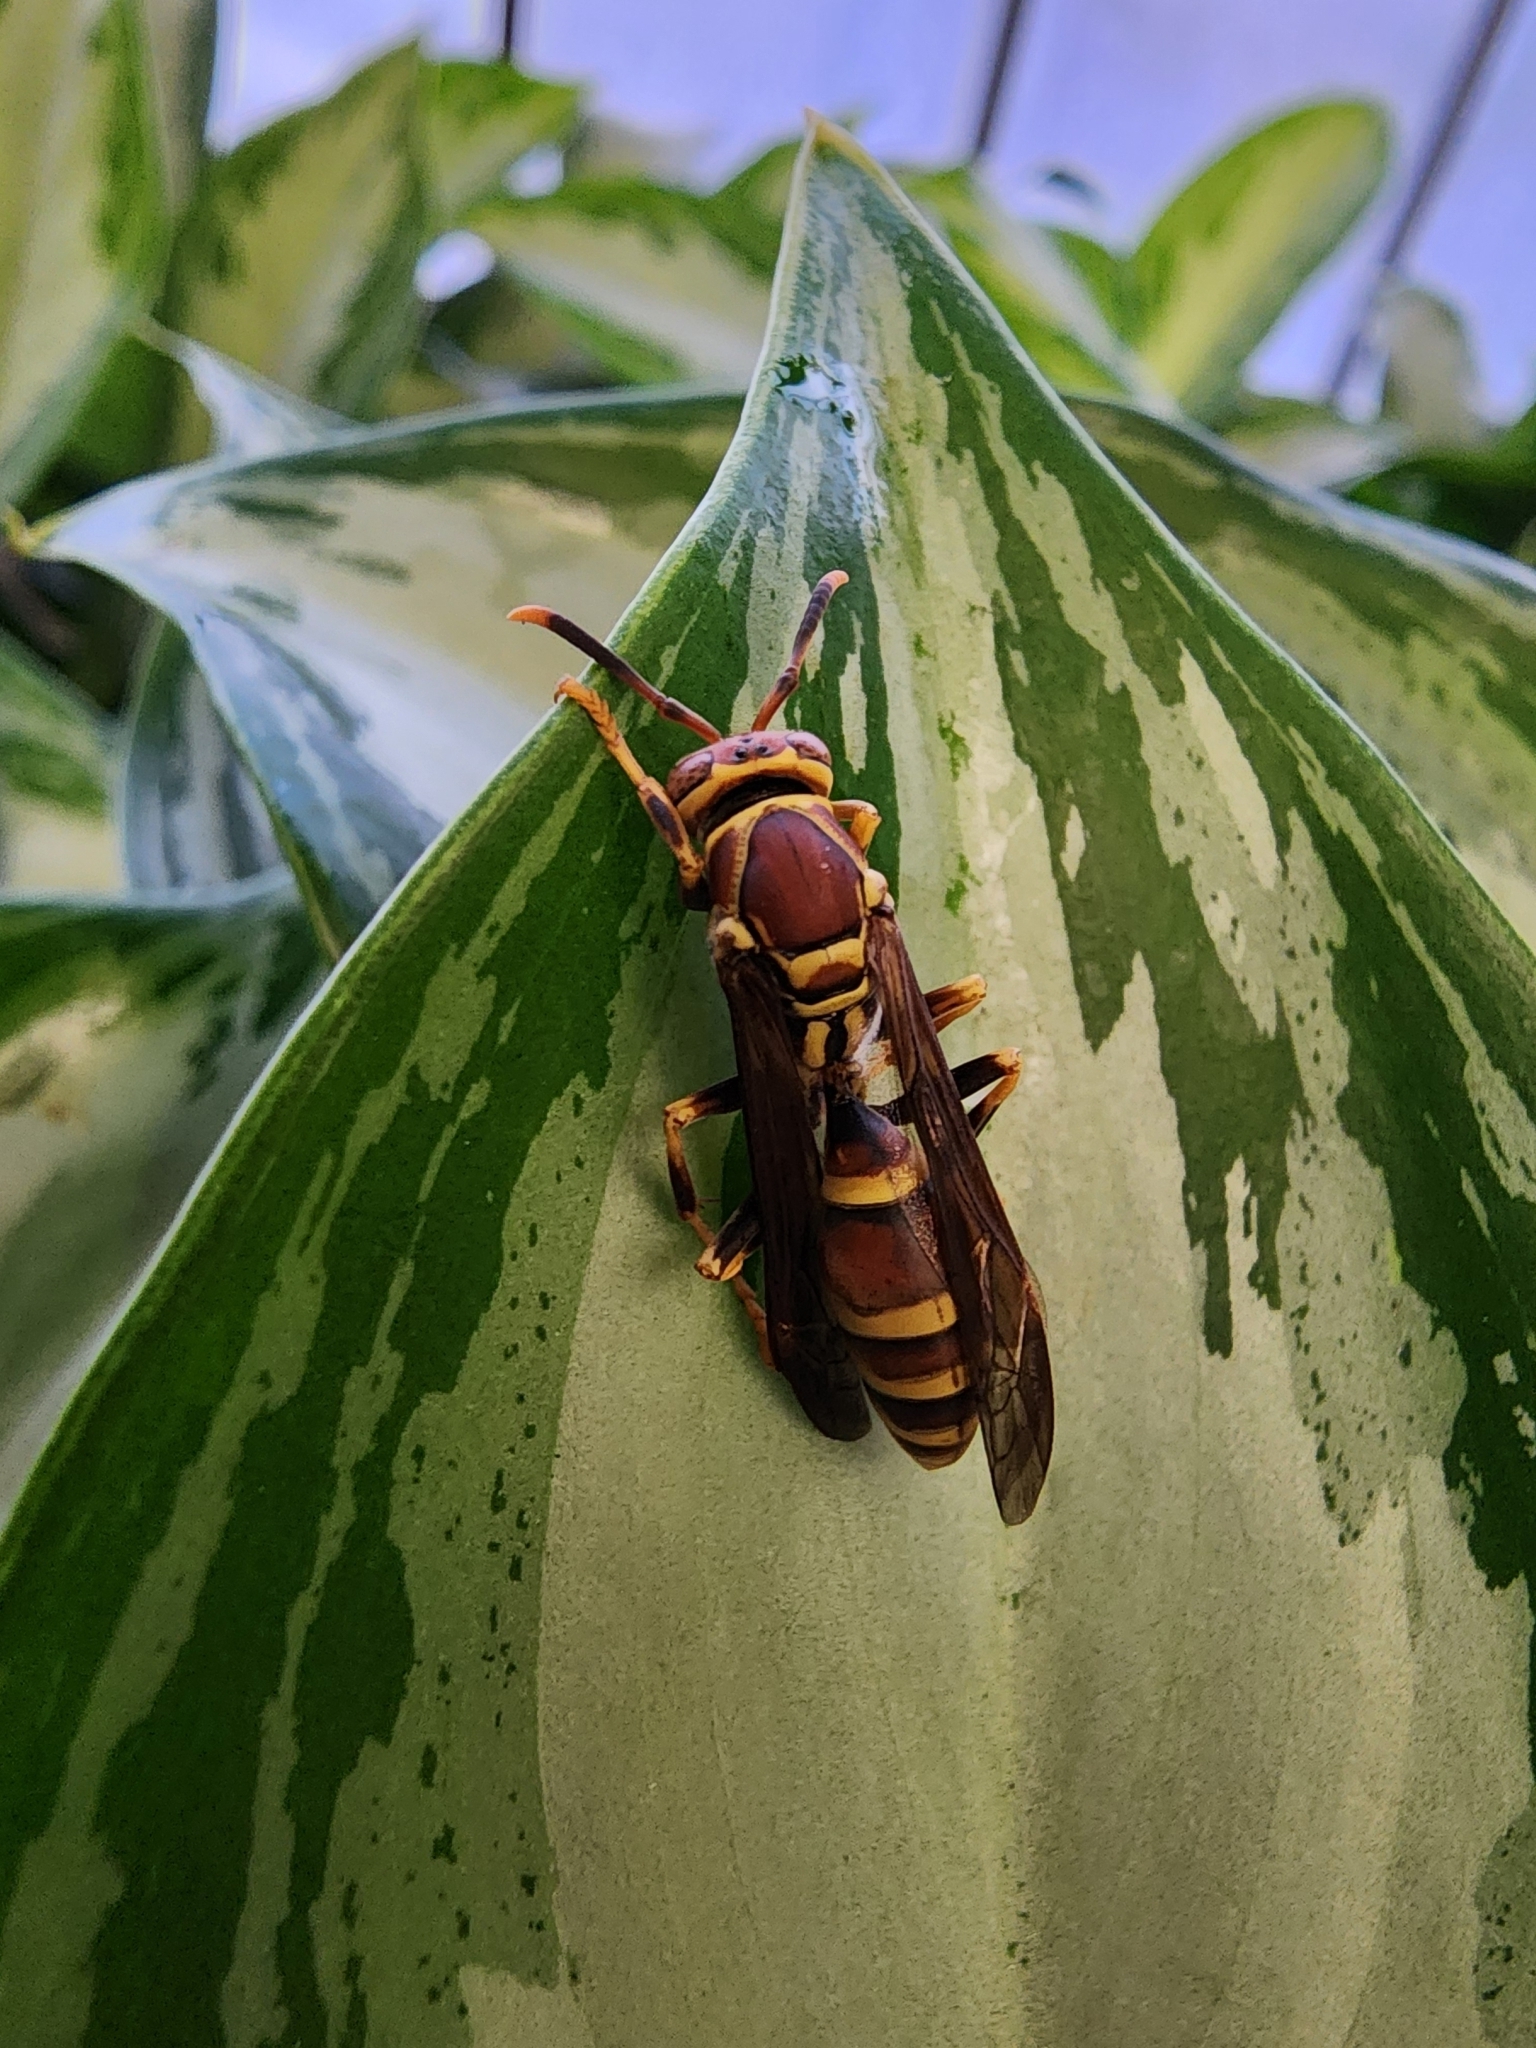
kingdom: Animalia
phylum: Arthropoda
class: Insecta
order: Hymenoptera
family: Eumenidae
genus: Polistes
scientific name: Polistes exclamans
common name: Paper wasp
